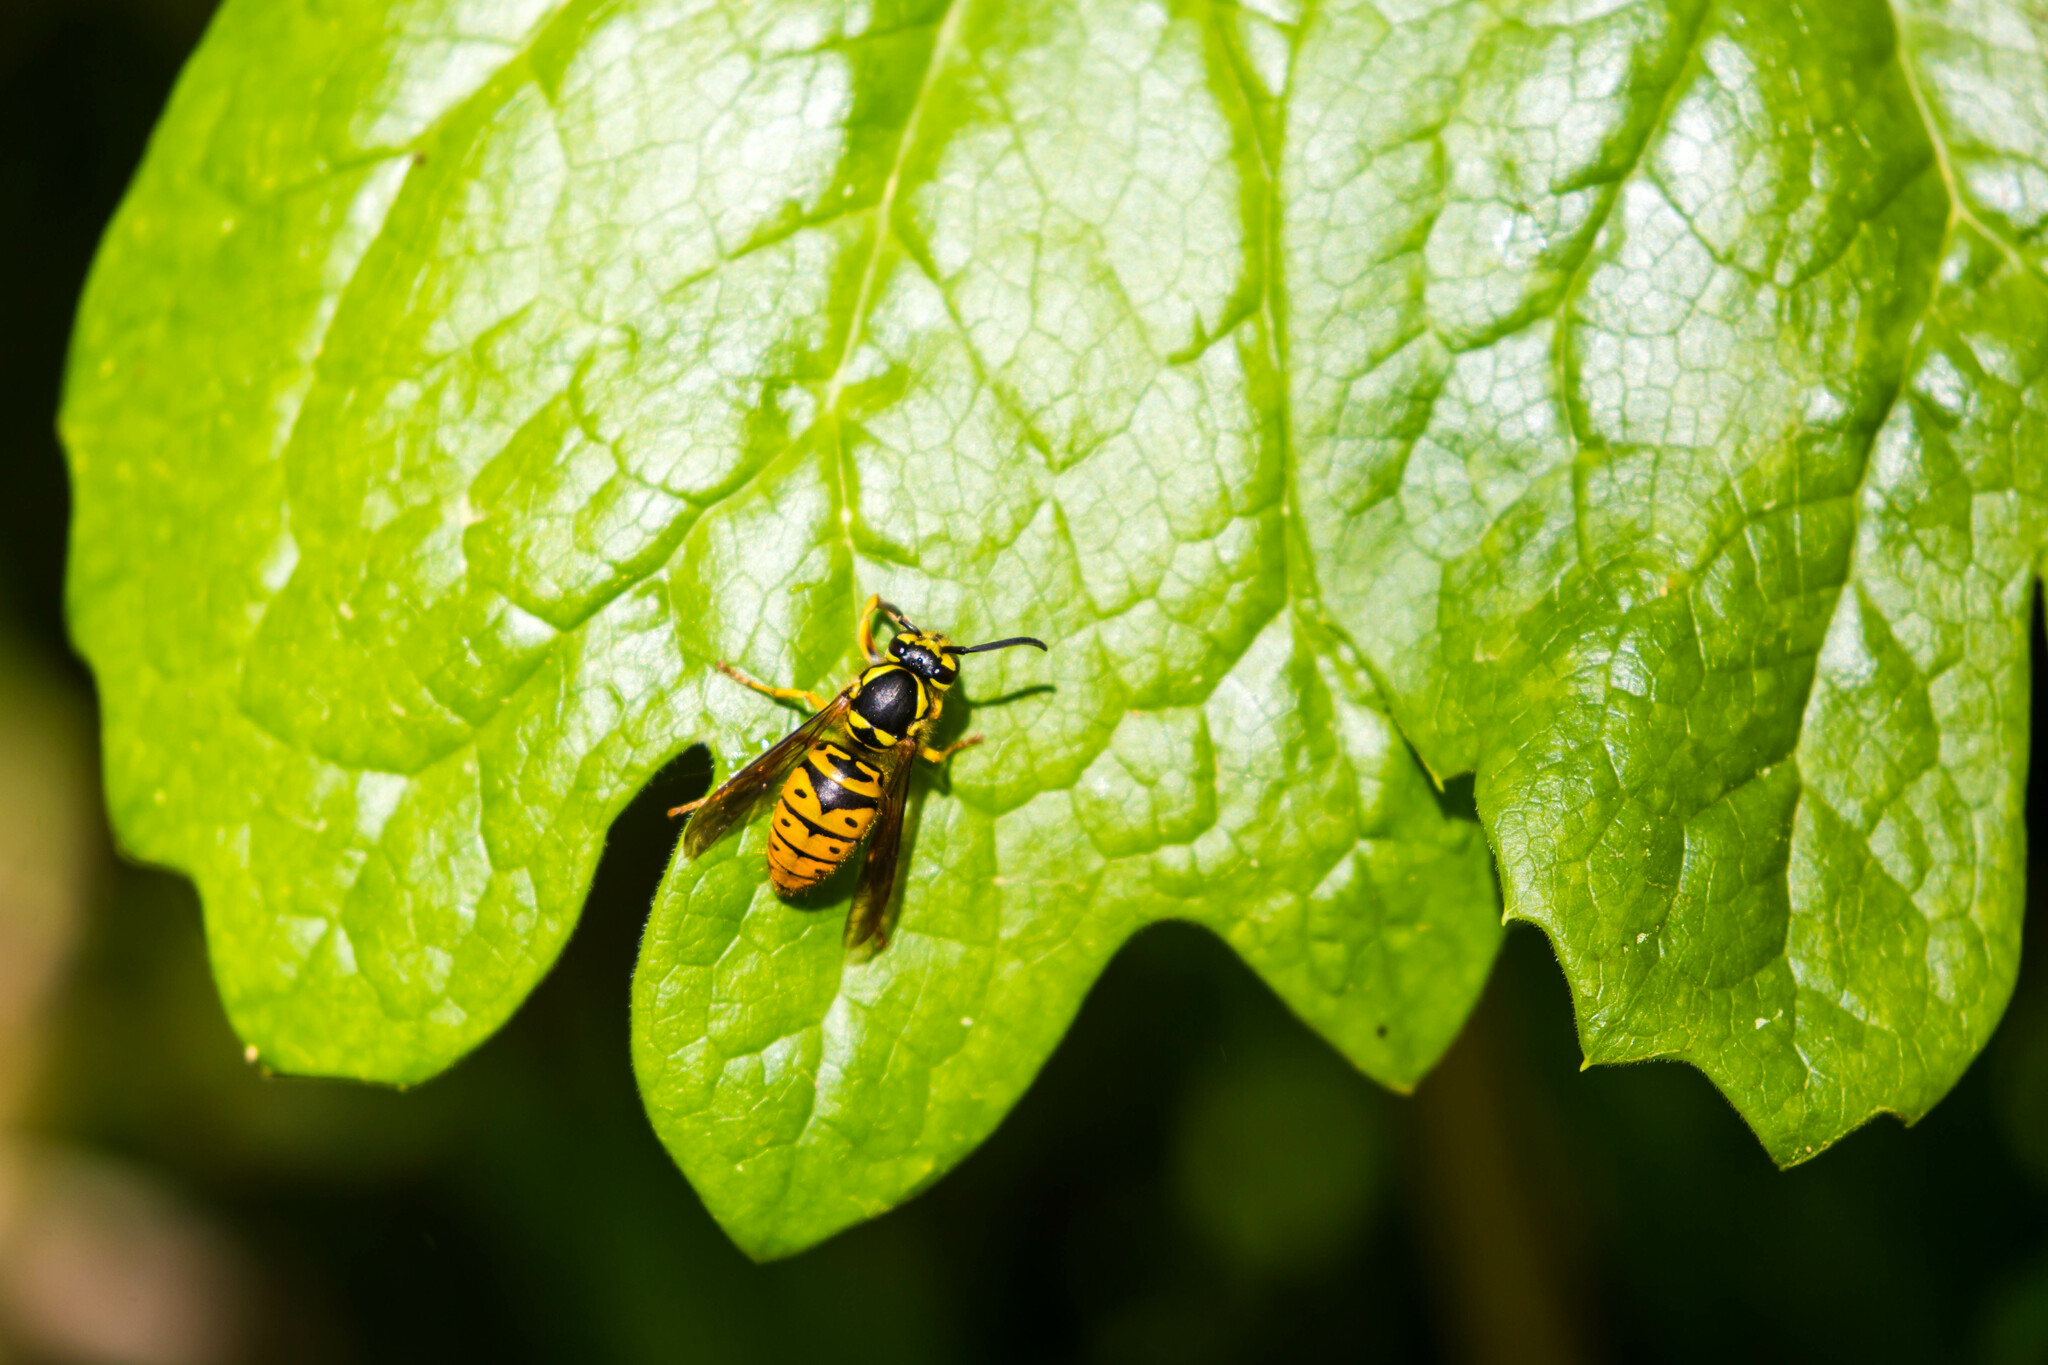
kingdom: Animalia
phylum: Arthropoda
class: Insecta
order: Hymenoptera
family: Vespidae
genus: Vespula
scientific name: Vespula maculifrons
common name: Eastern yellowjacket
